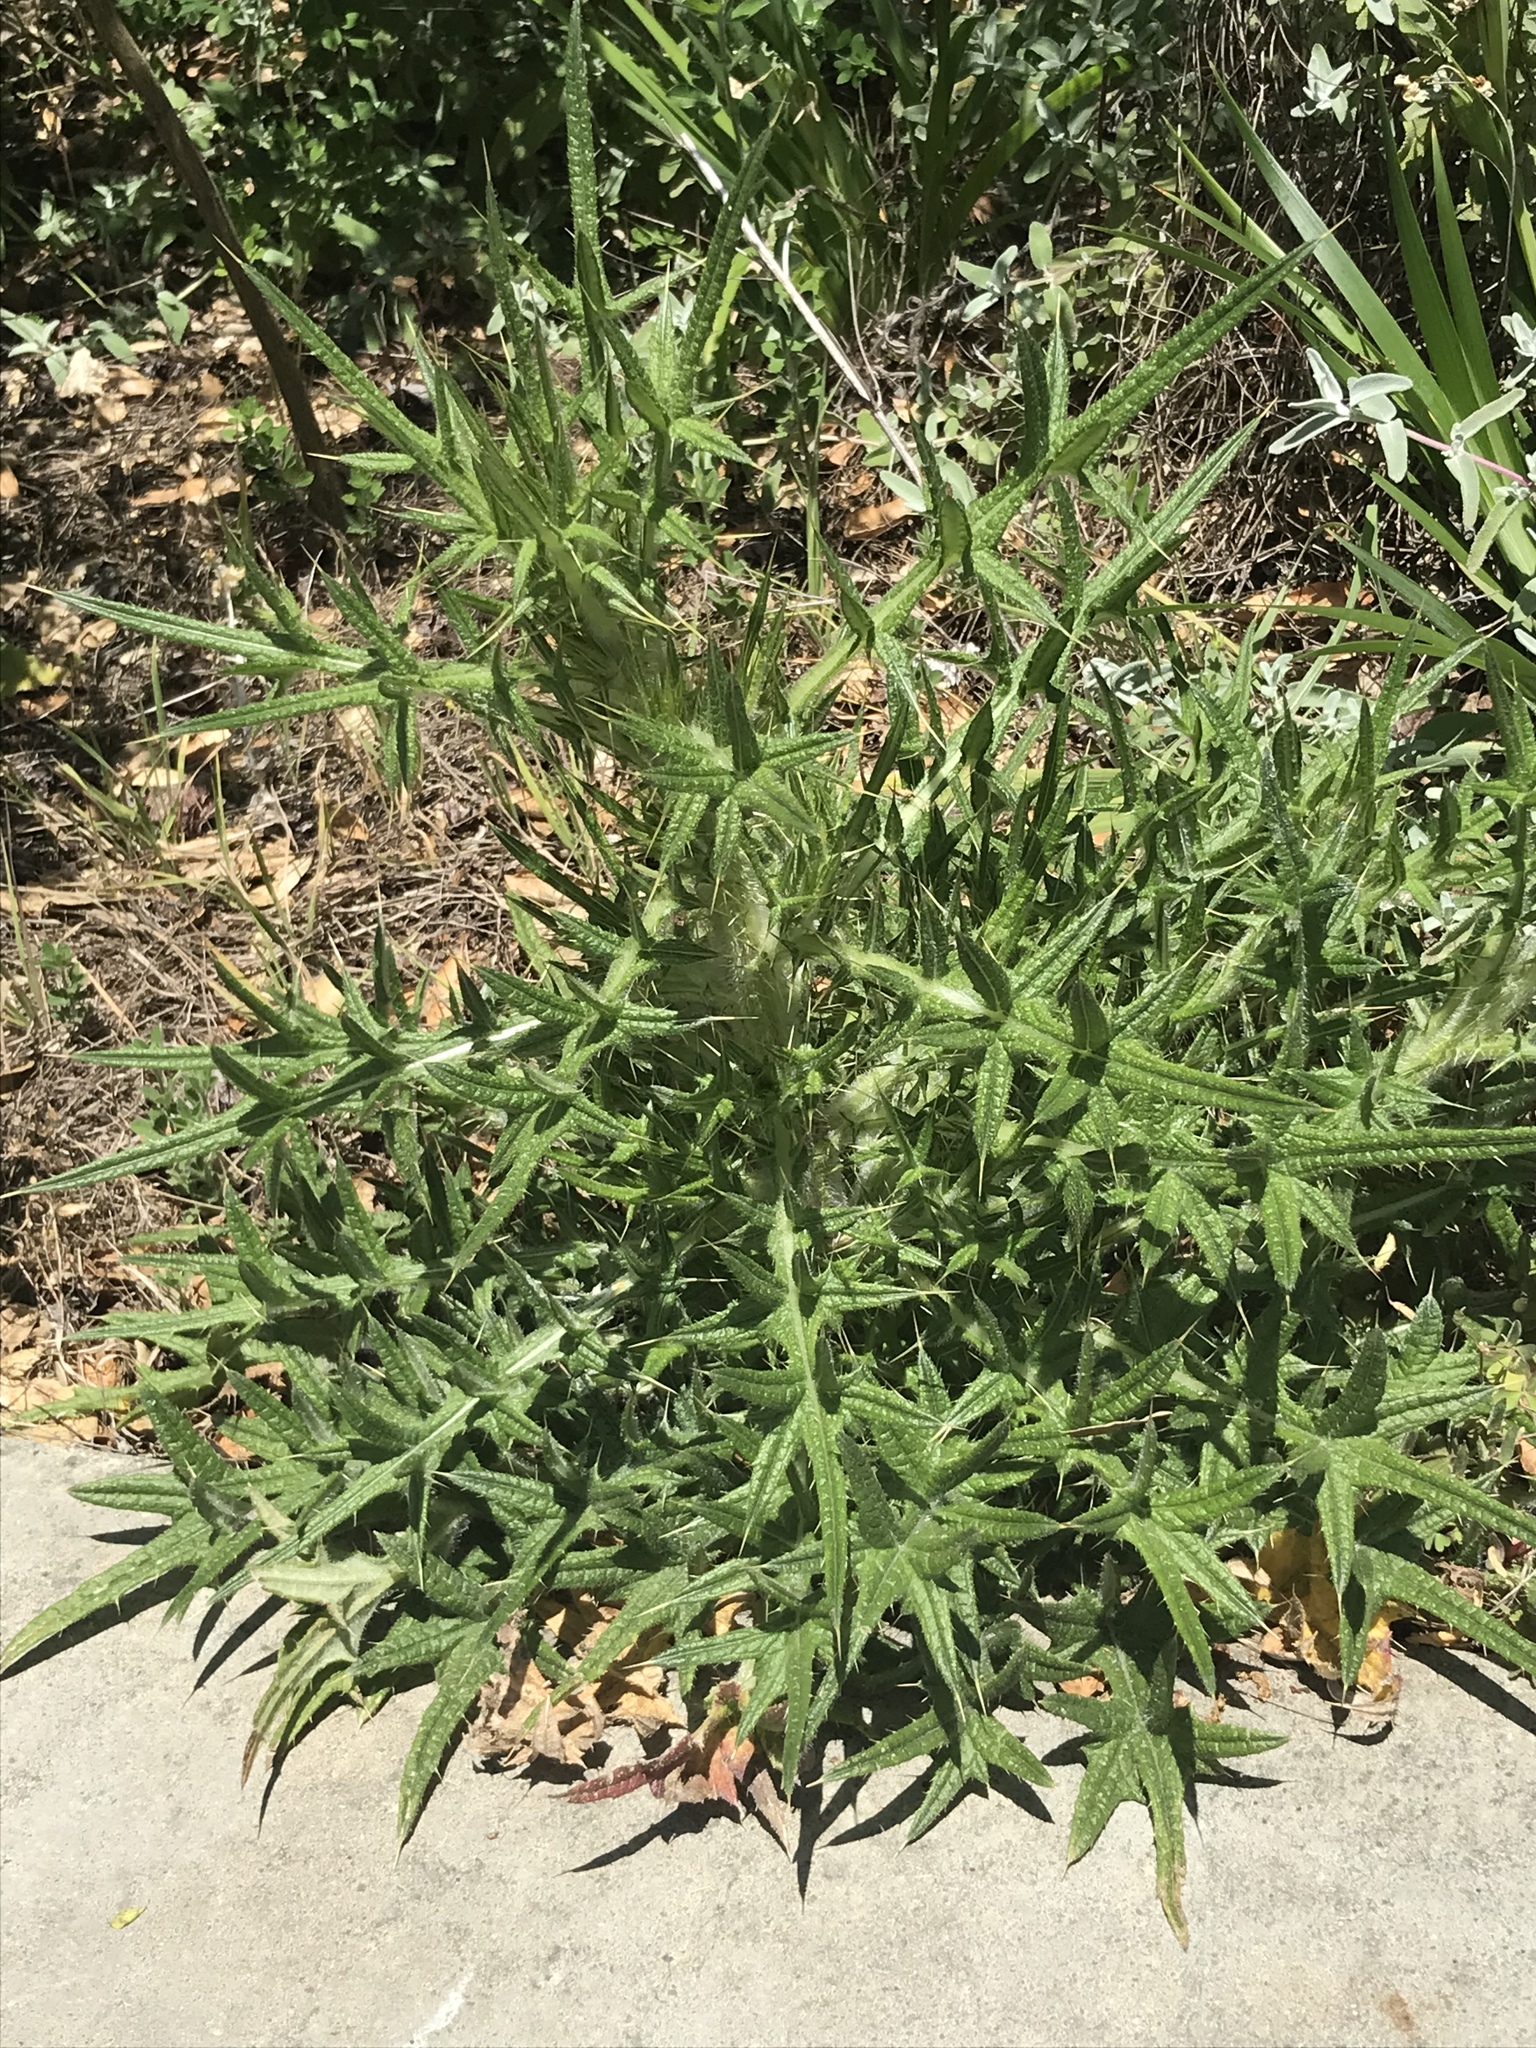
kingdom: Plantae
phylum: Tracheophyta
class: Magnoliopsida
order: Asterales
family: Asteraceae
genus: Cirsium
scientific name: Cirsium vulgare
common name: Bull thistle
